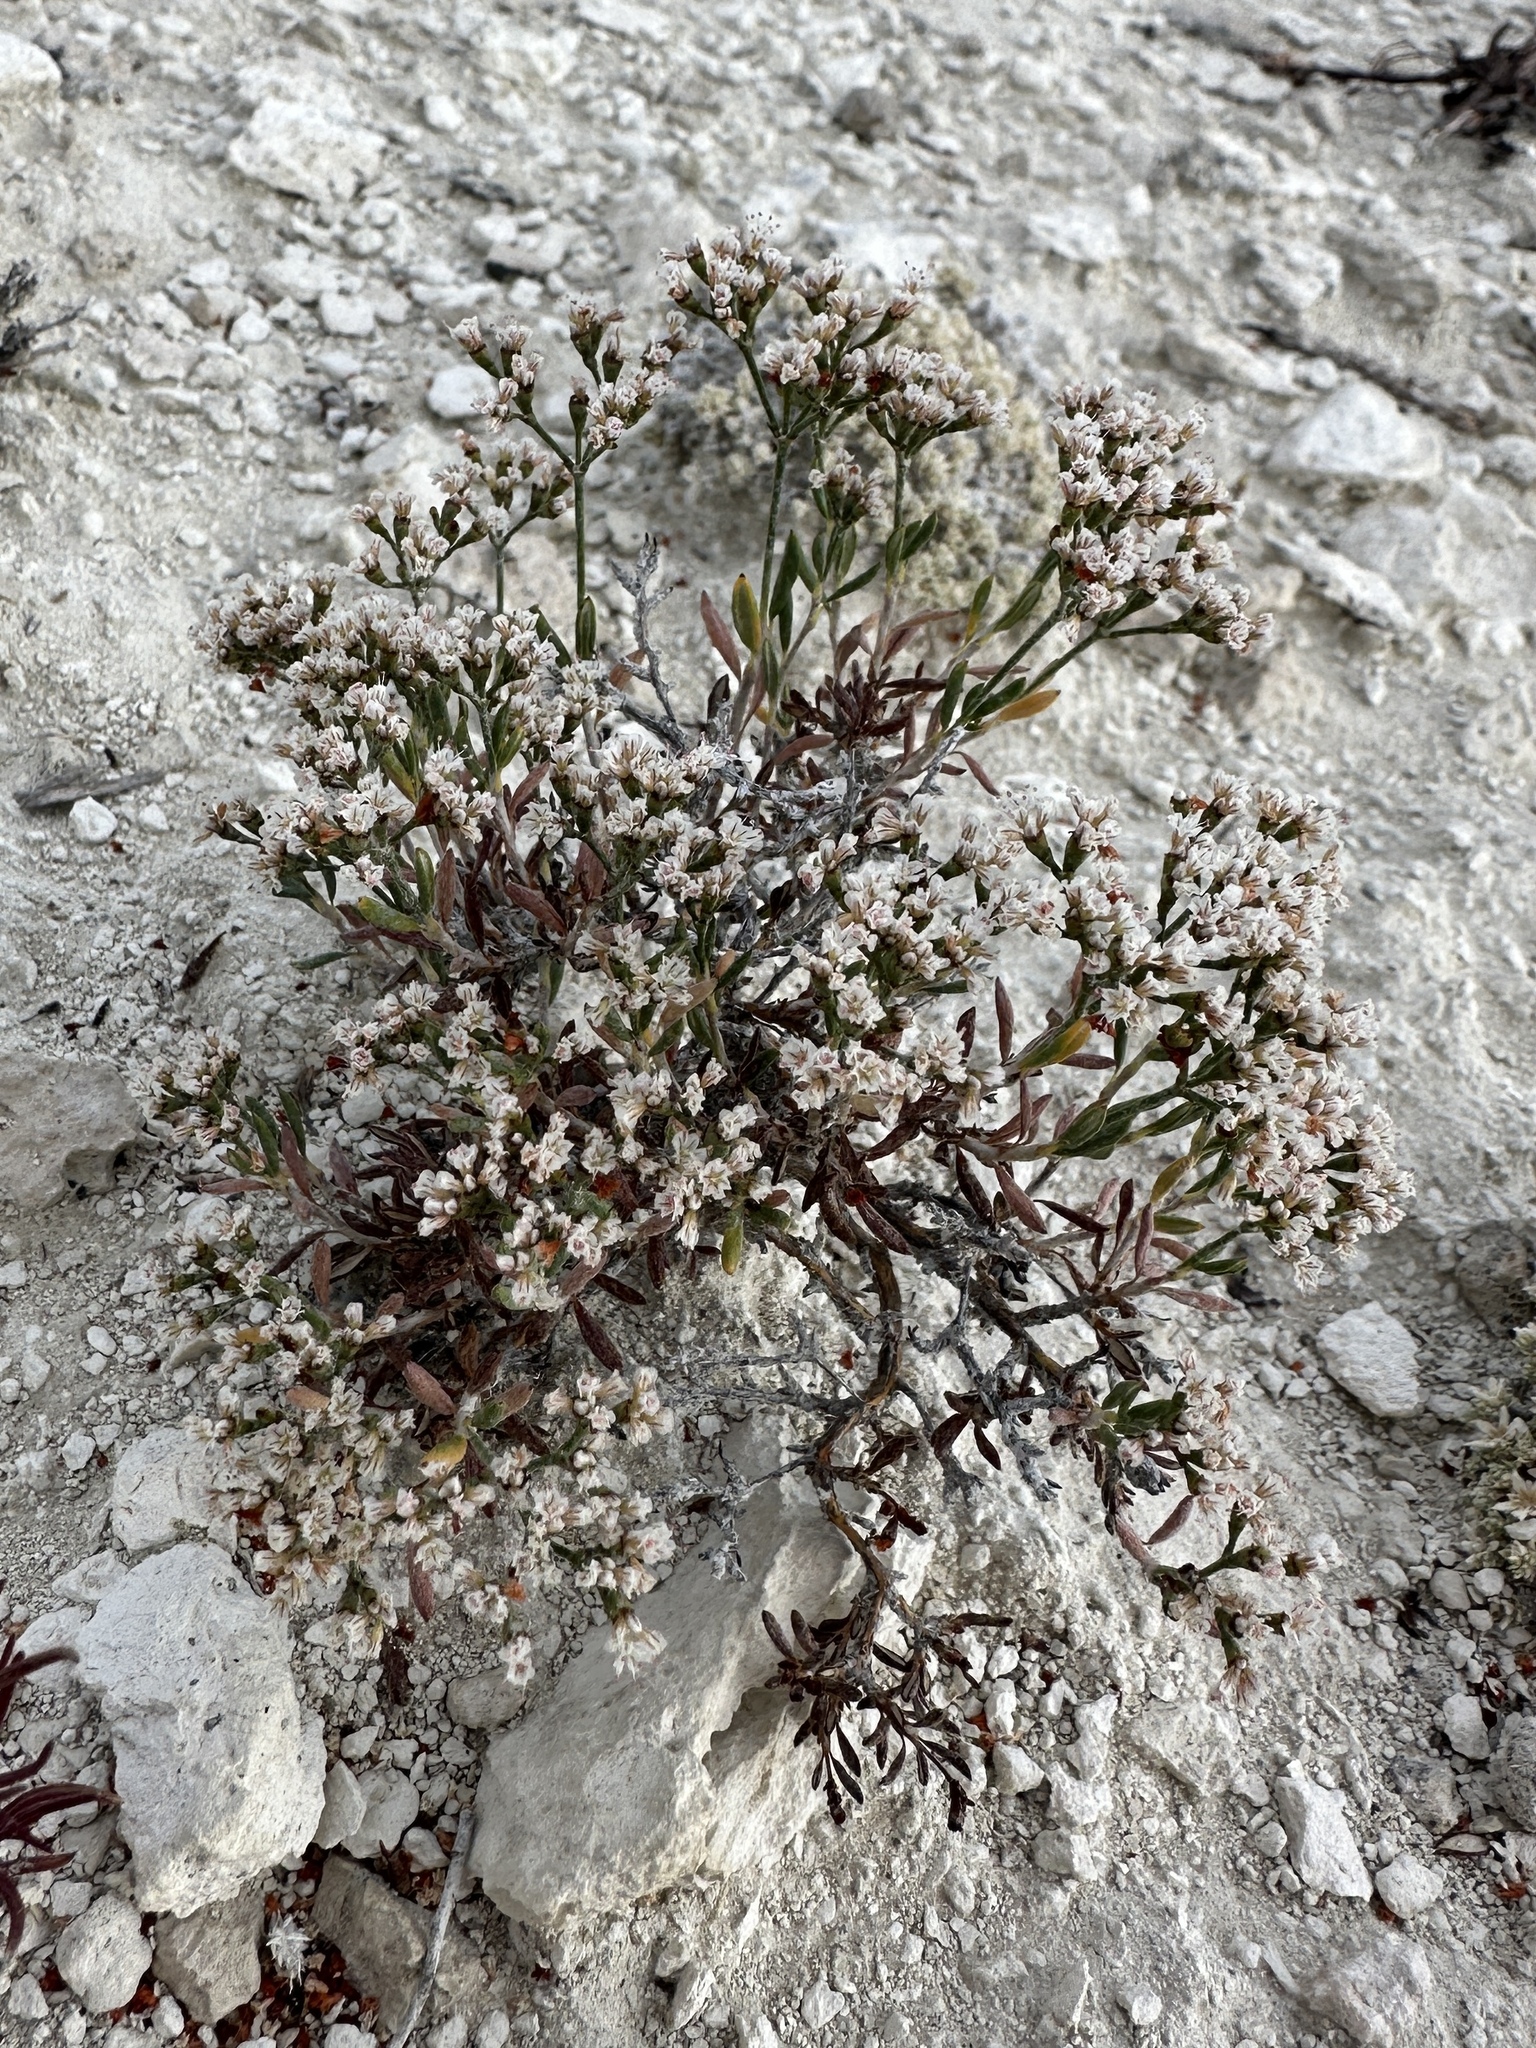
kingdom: Plantae
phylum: Tracheophyta
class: Magnoliopsida
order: Caryophyllales
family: Polygonaceae
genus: Eriogonum
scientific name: Eriogonum microtheca
